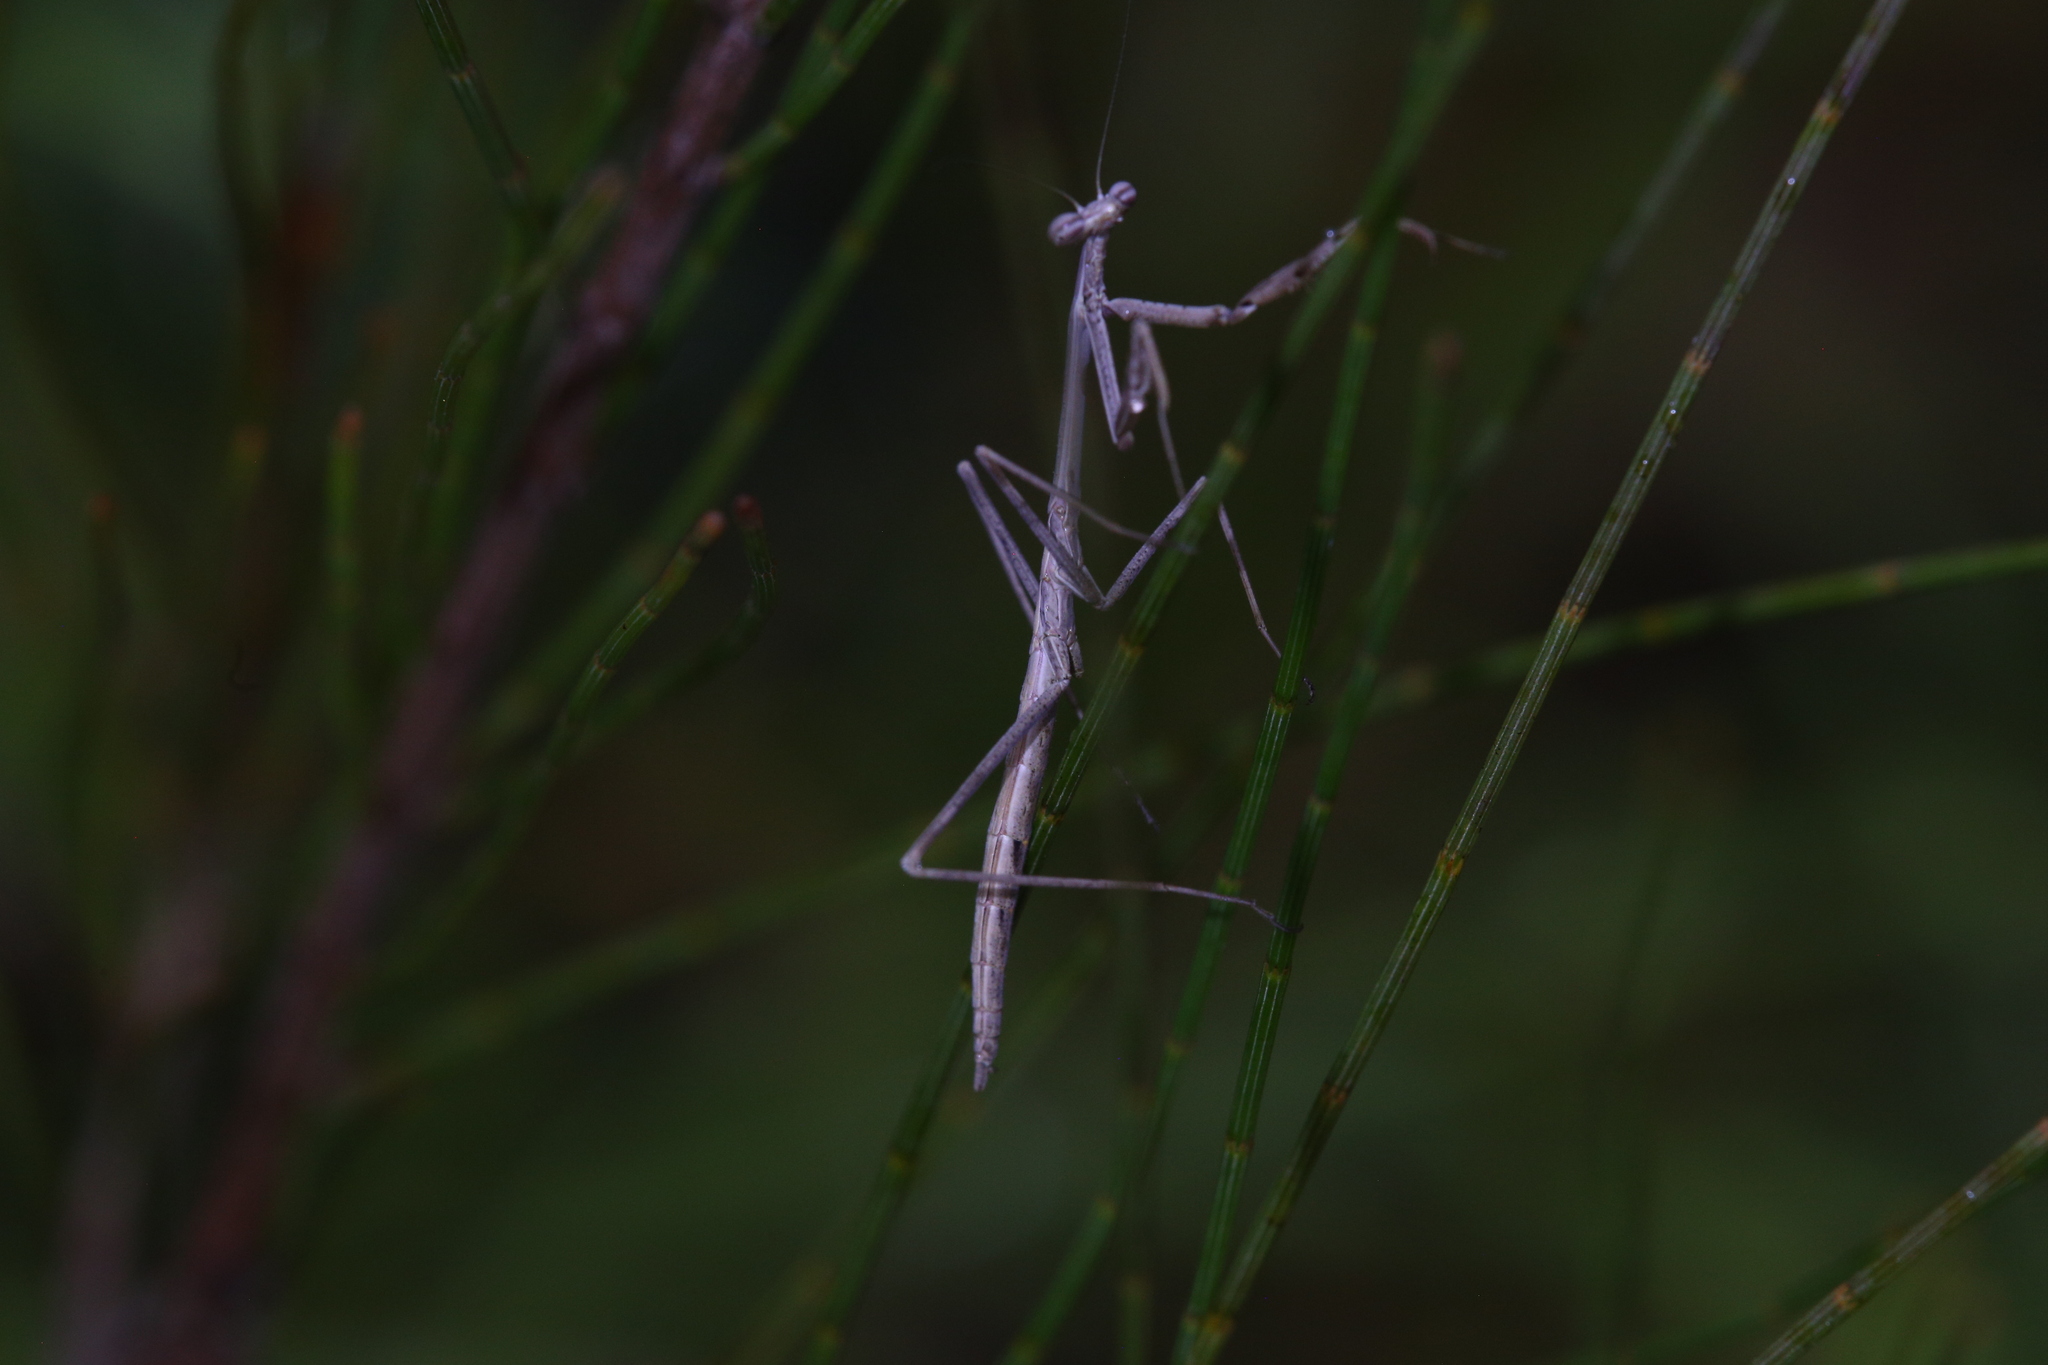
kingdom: Animalia
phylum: Arthropoda
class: Insecta
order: Mantodea
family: Mantidae
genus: Archimantis
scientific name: Archimantis latistyla
